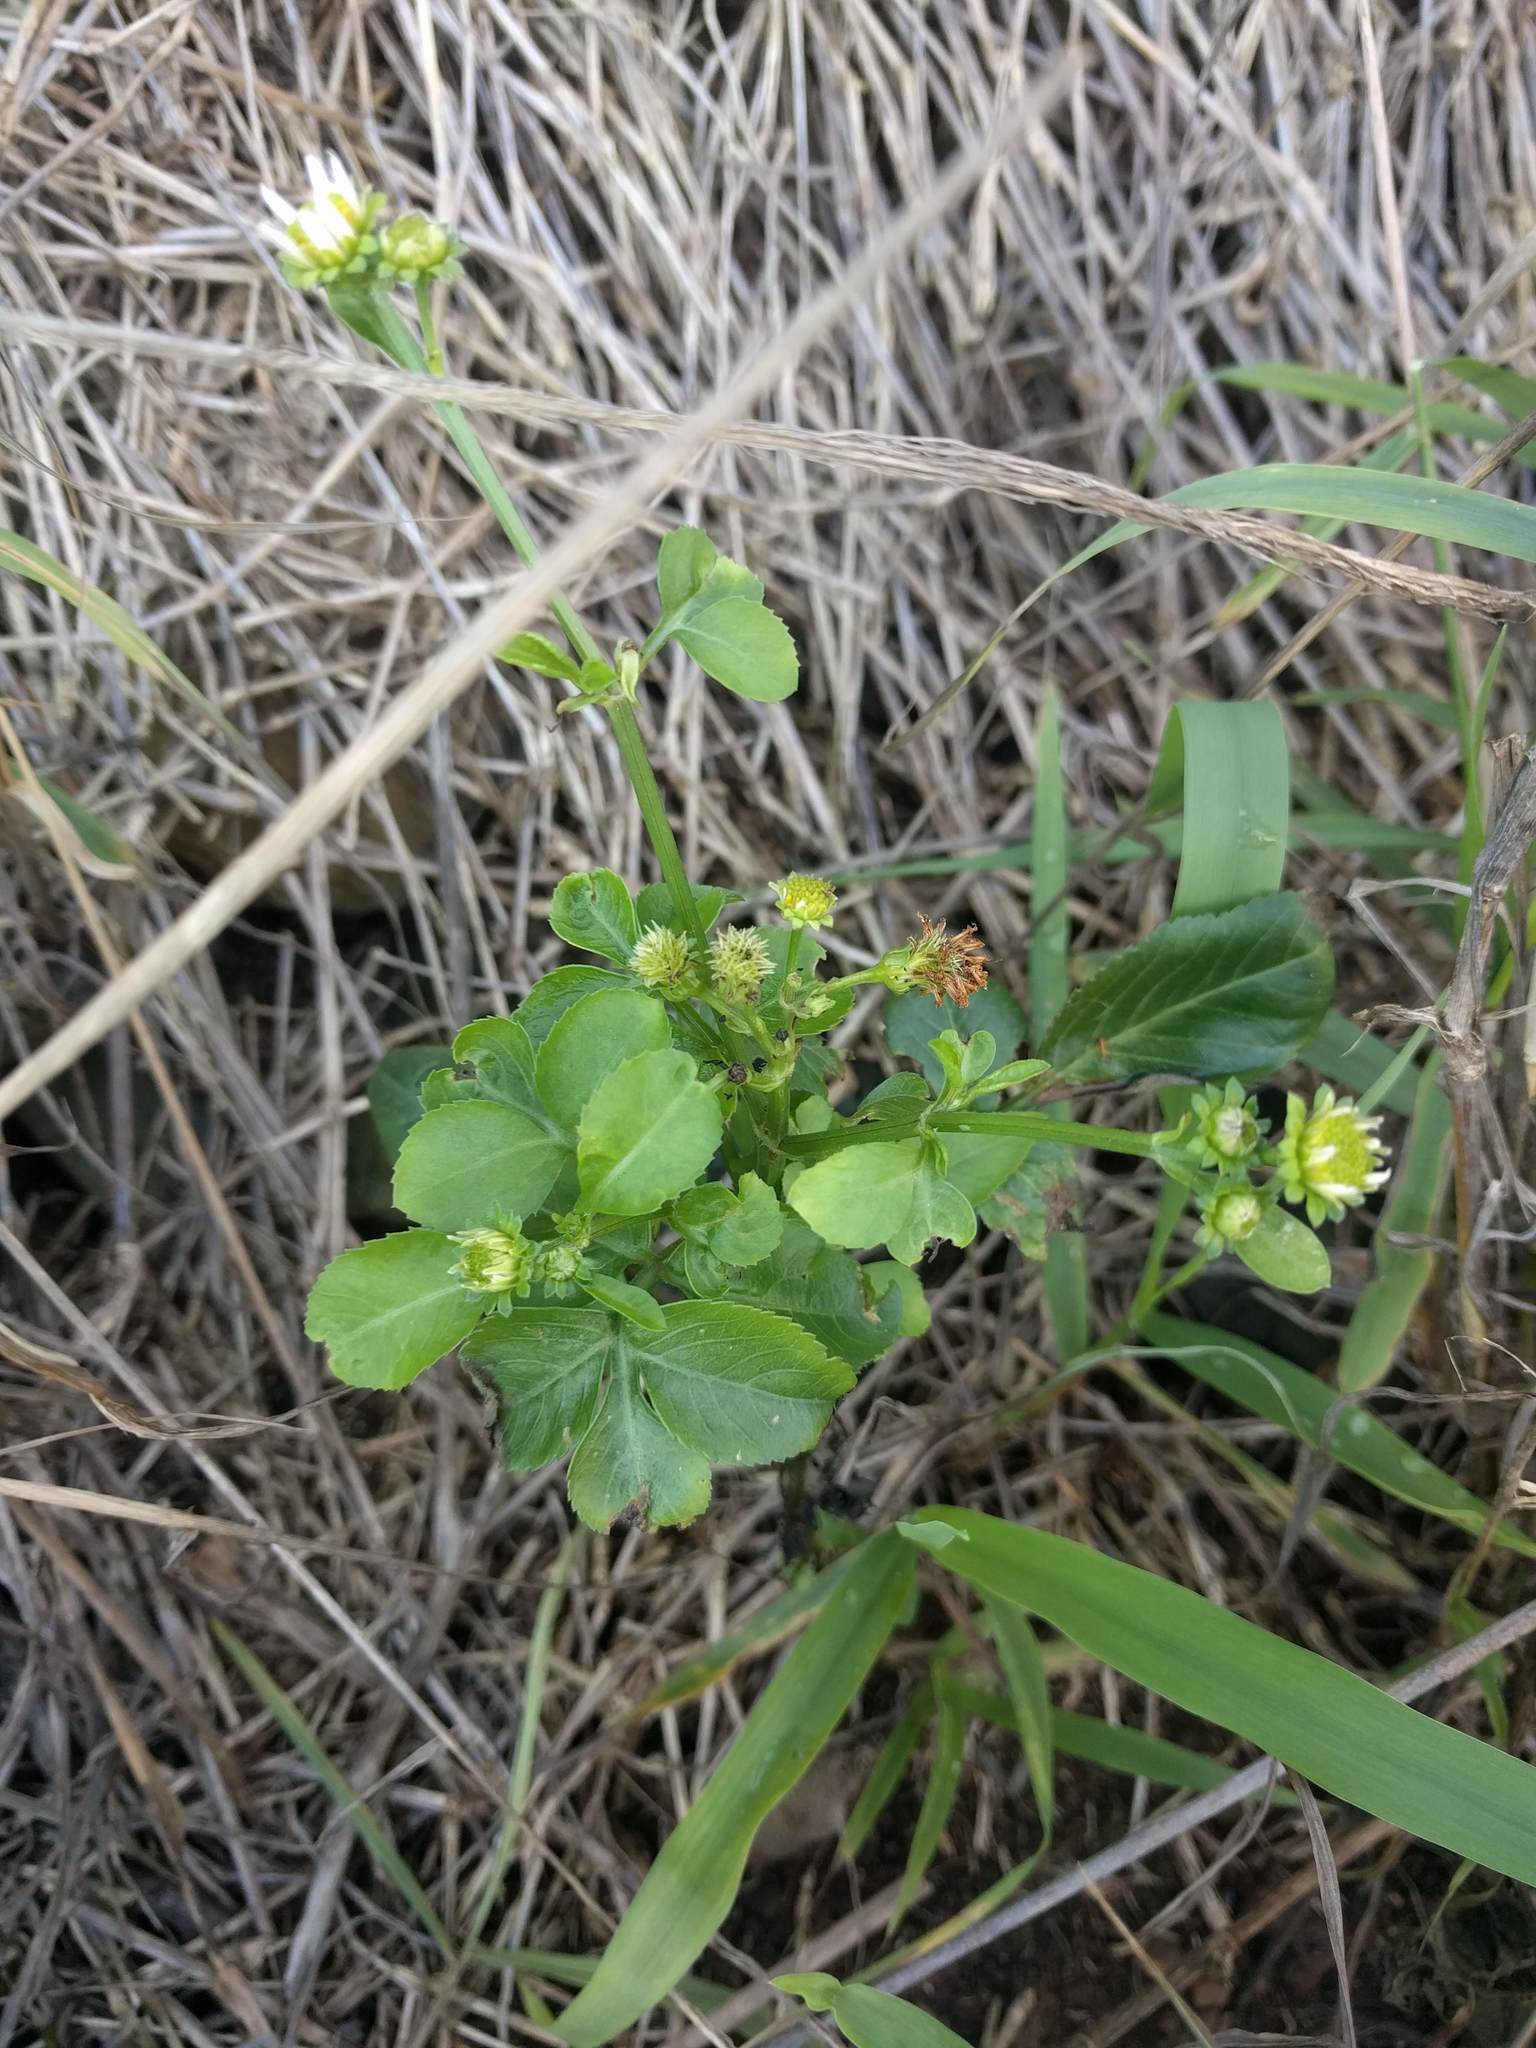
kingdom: Plantae
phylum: Tracheophyta
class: Magnoliopsida
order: Asterales
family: Asteraceae
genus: Bidens
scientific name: Bidens alba
